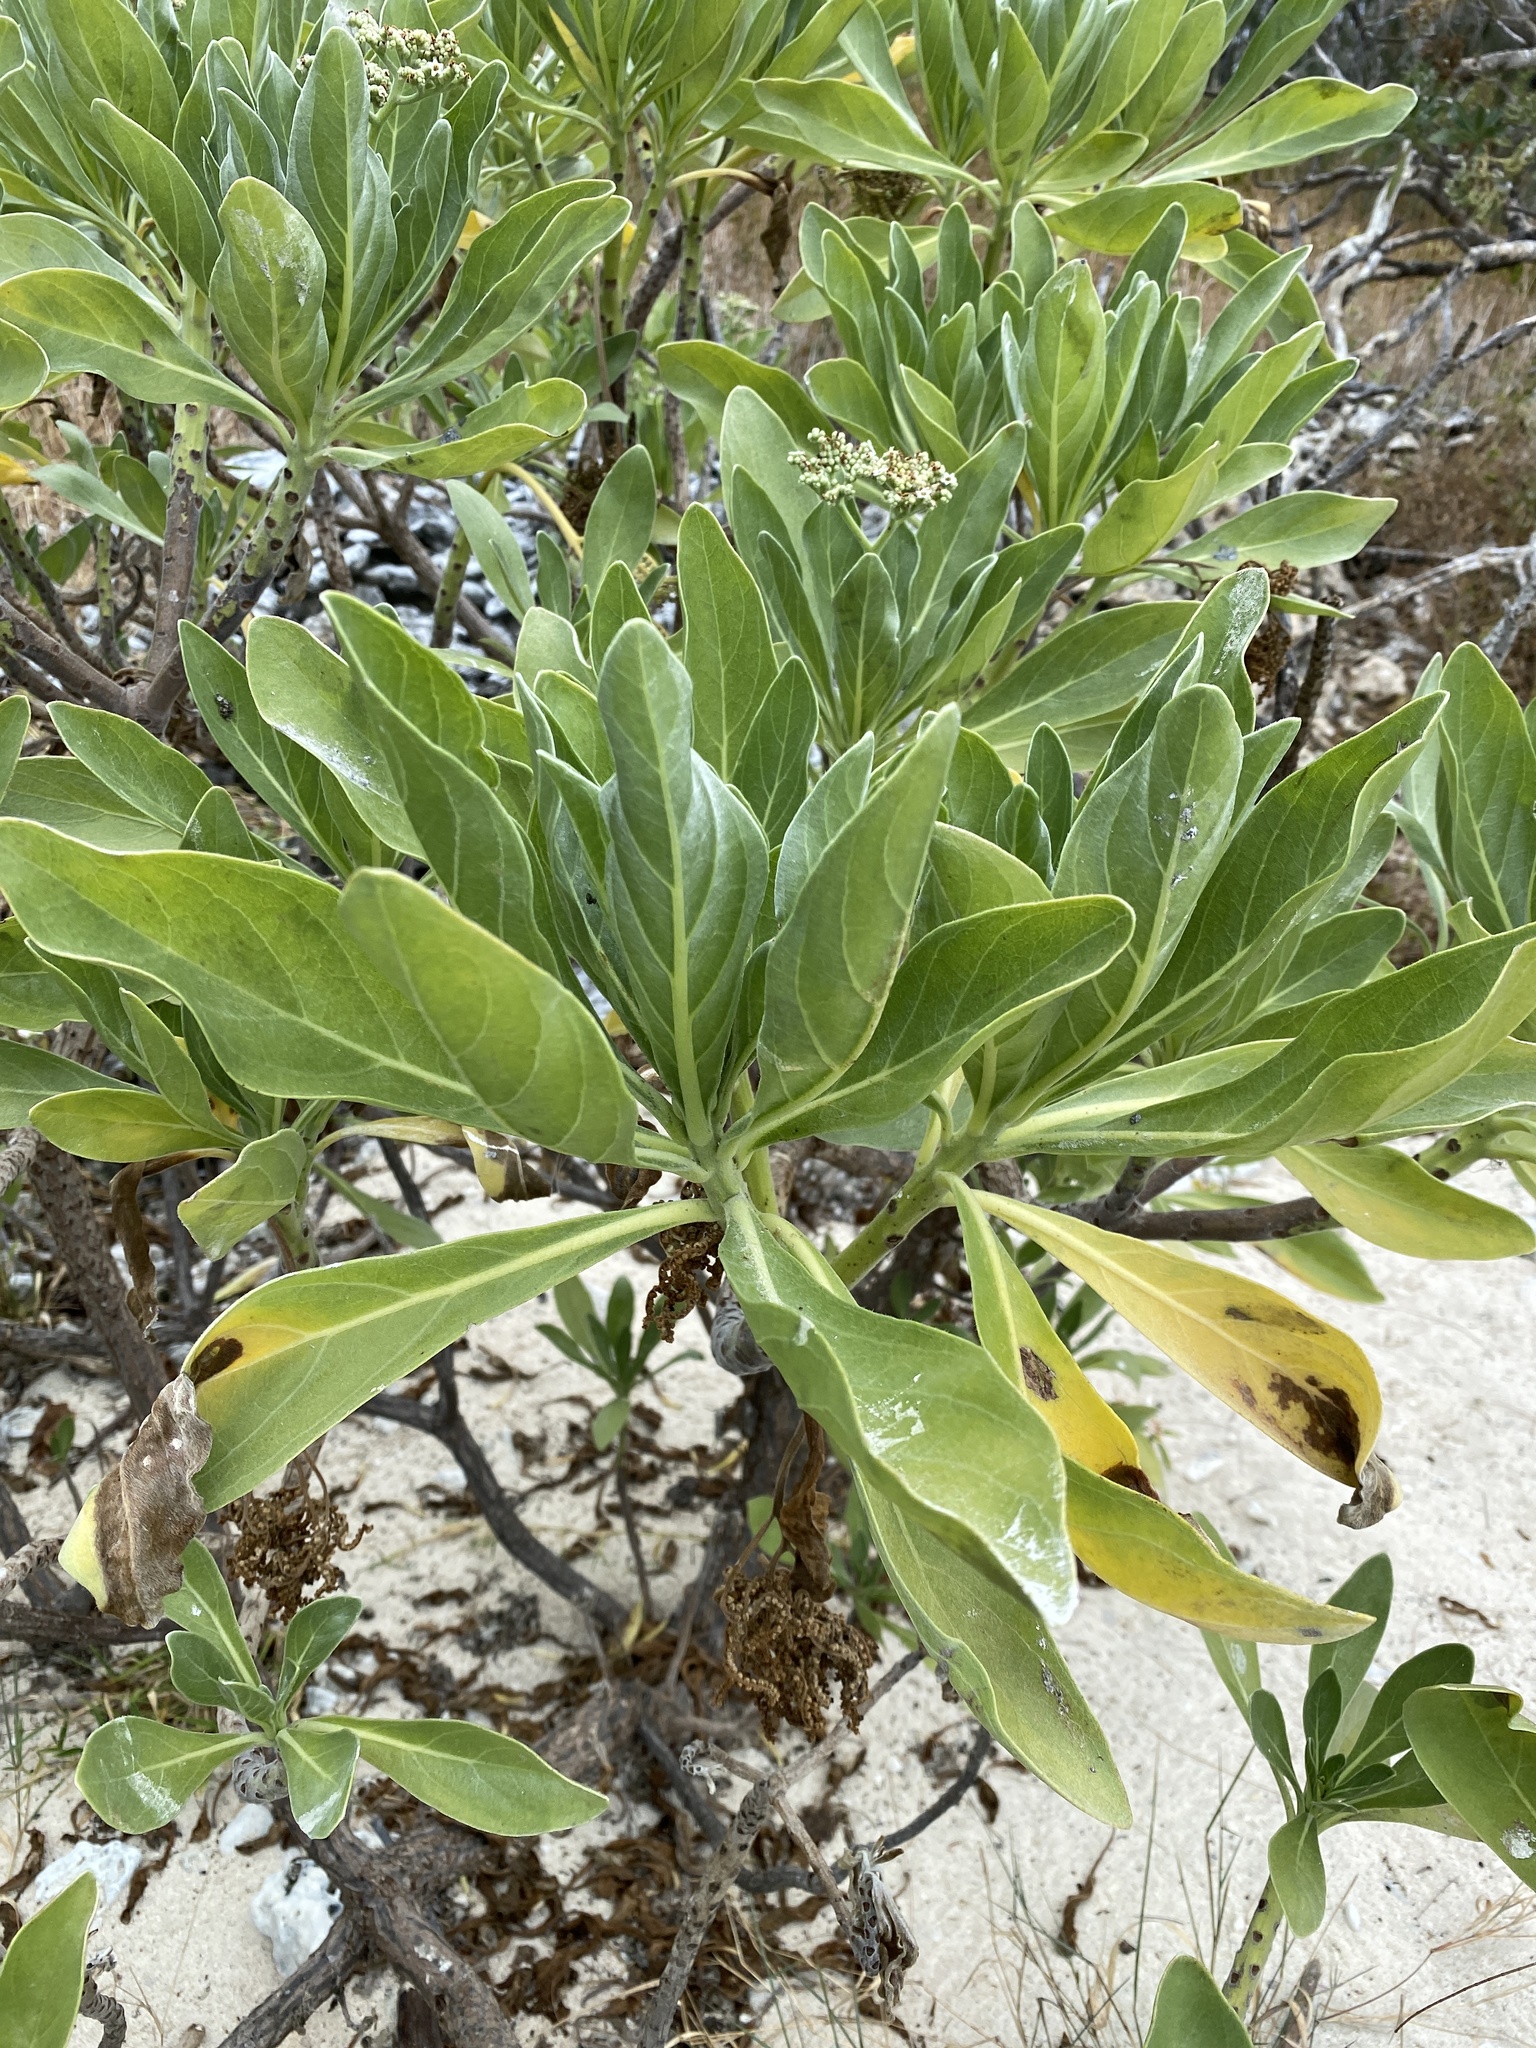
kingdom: Plantae
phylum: Tracheophyta
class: Magnoliopsida
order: Boraginales
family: Heliotropiaceae
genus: Heliotropium
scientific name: Heliotropium velutinum
